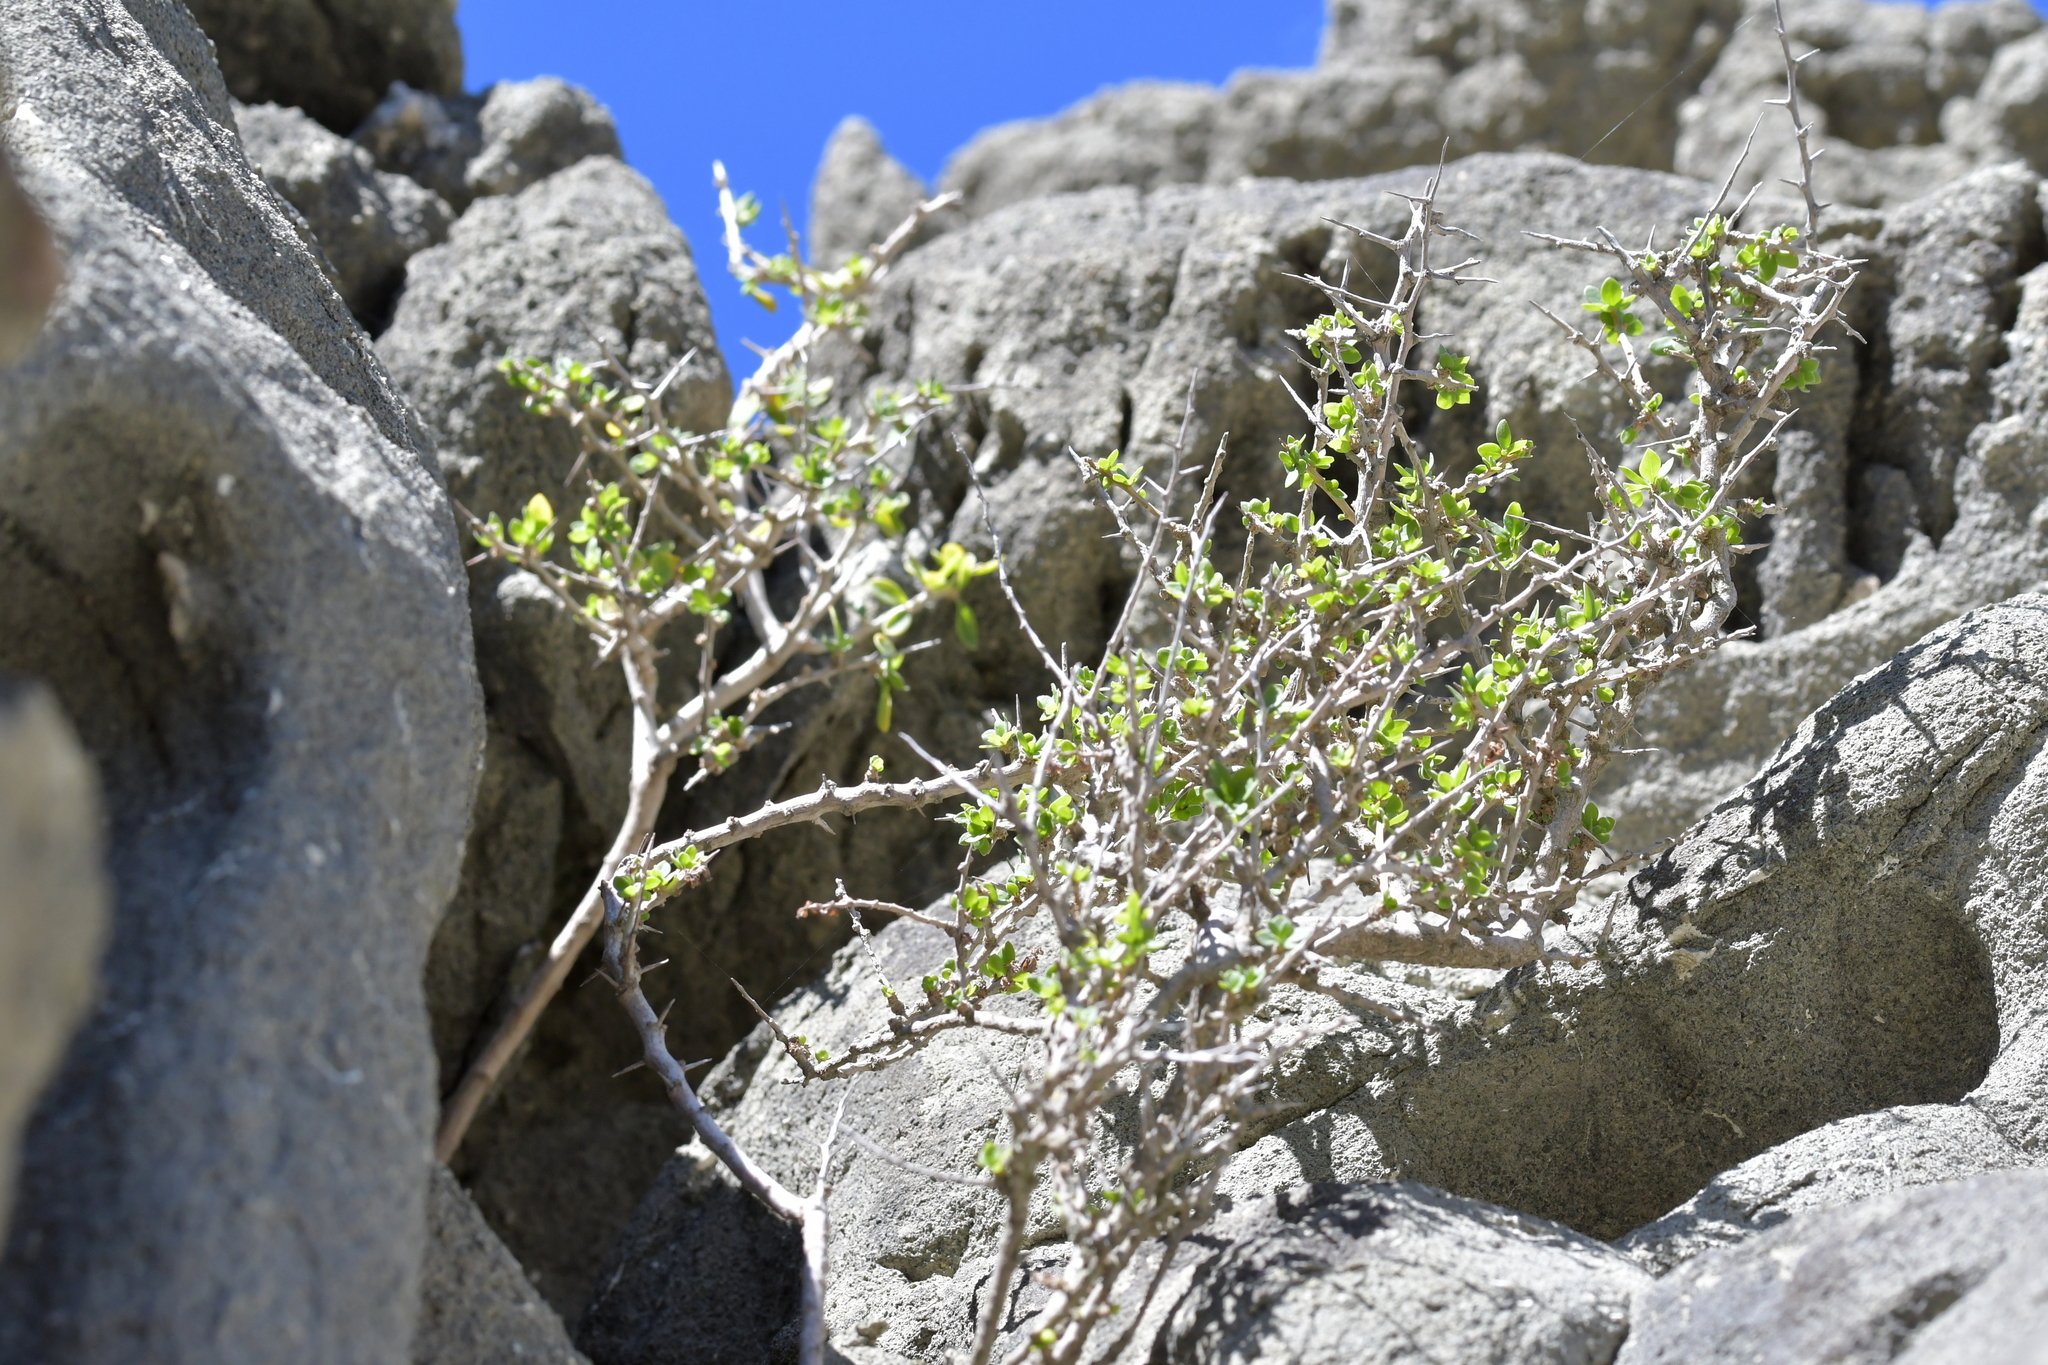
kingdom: Plantae
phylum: Tracheophyta
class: Magnoliopsida
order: Solanales
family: Solanaceae
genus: Lycium
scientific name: Lycium ferocissimum
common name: African boxthorn
